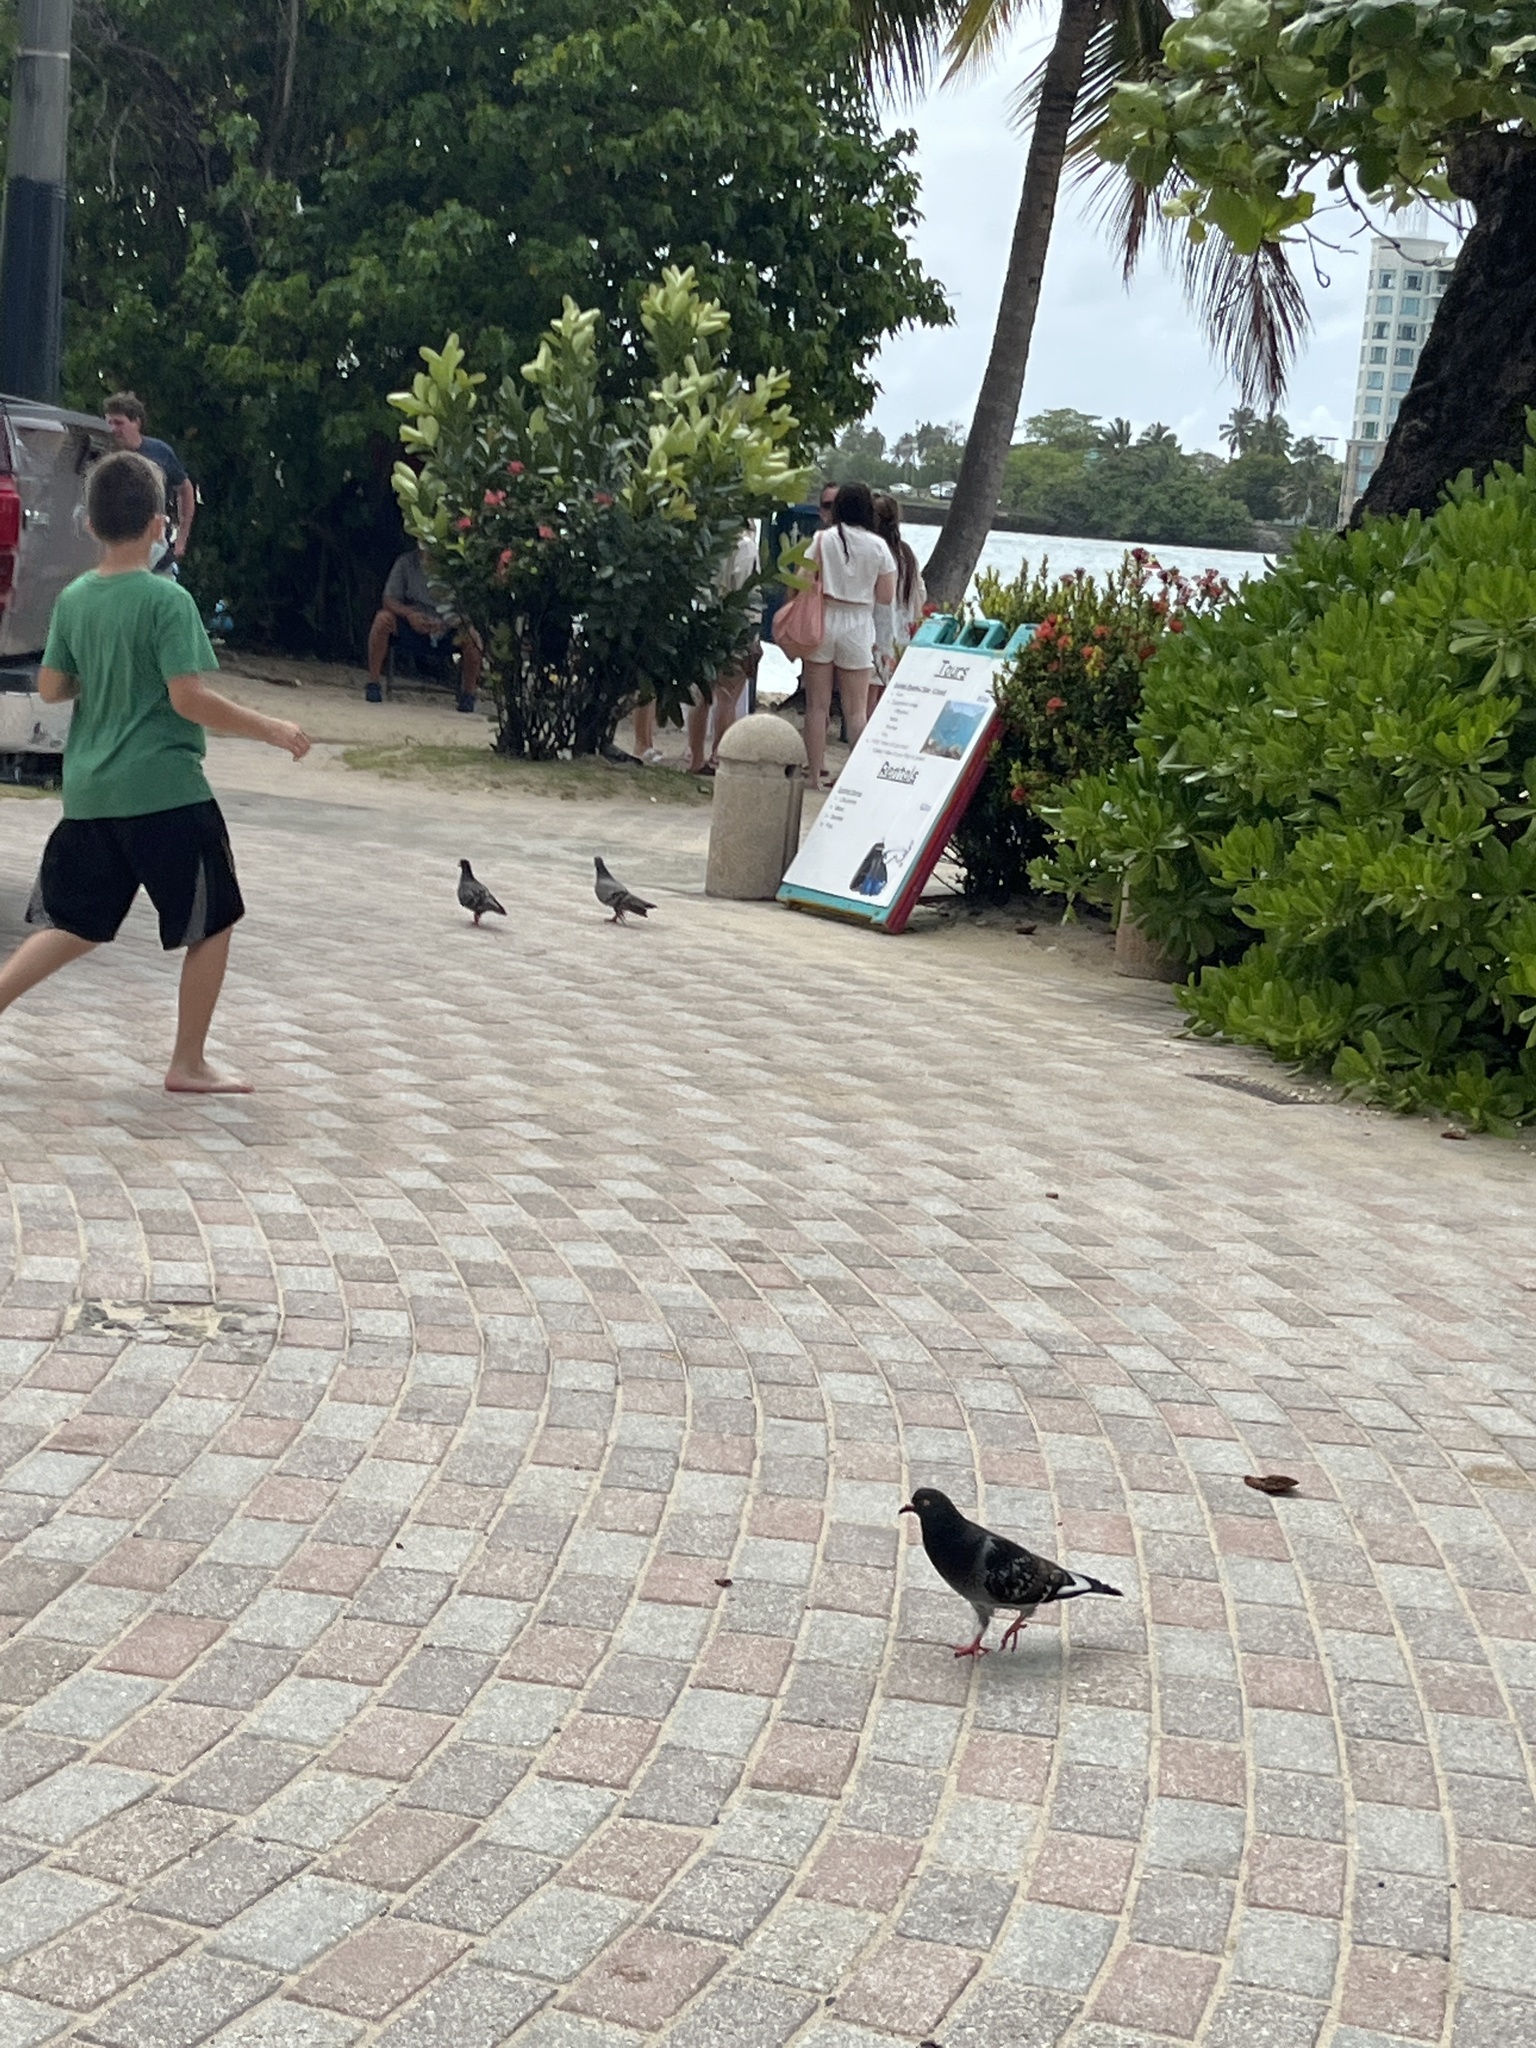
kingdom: Animalia
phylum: Chordata
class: Aves
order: Columbiformes
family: Columbidae
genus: Columba
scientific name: Columba livia
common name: Rock pigeon
